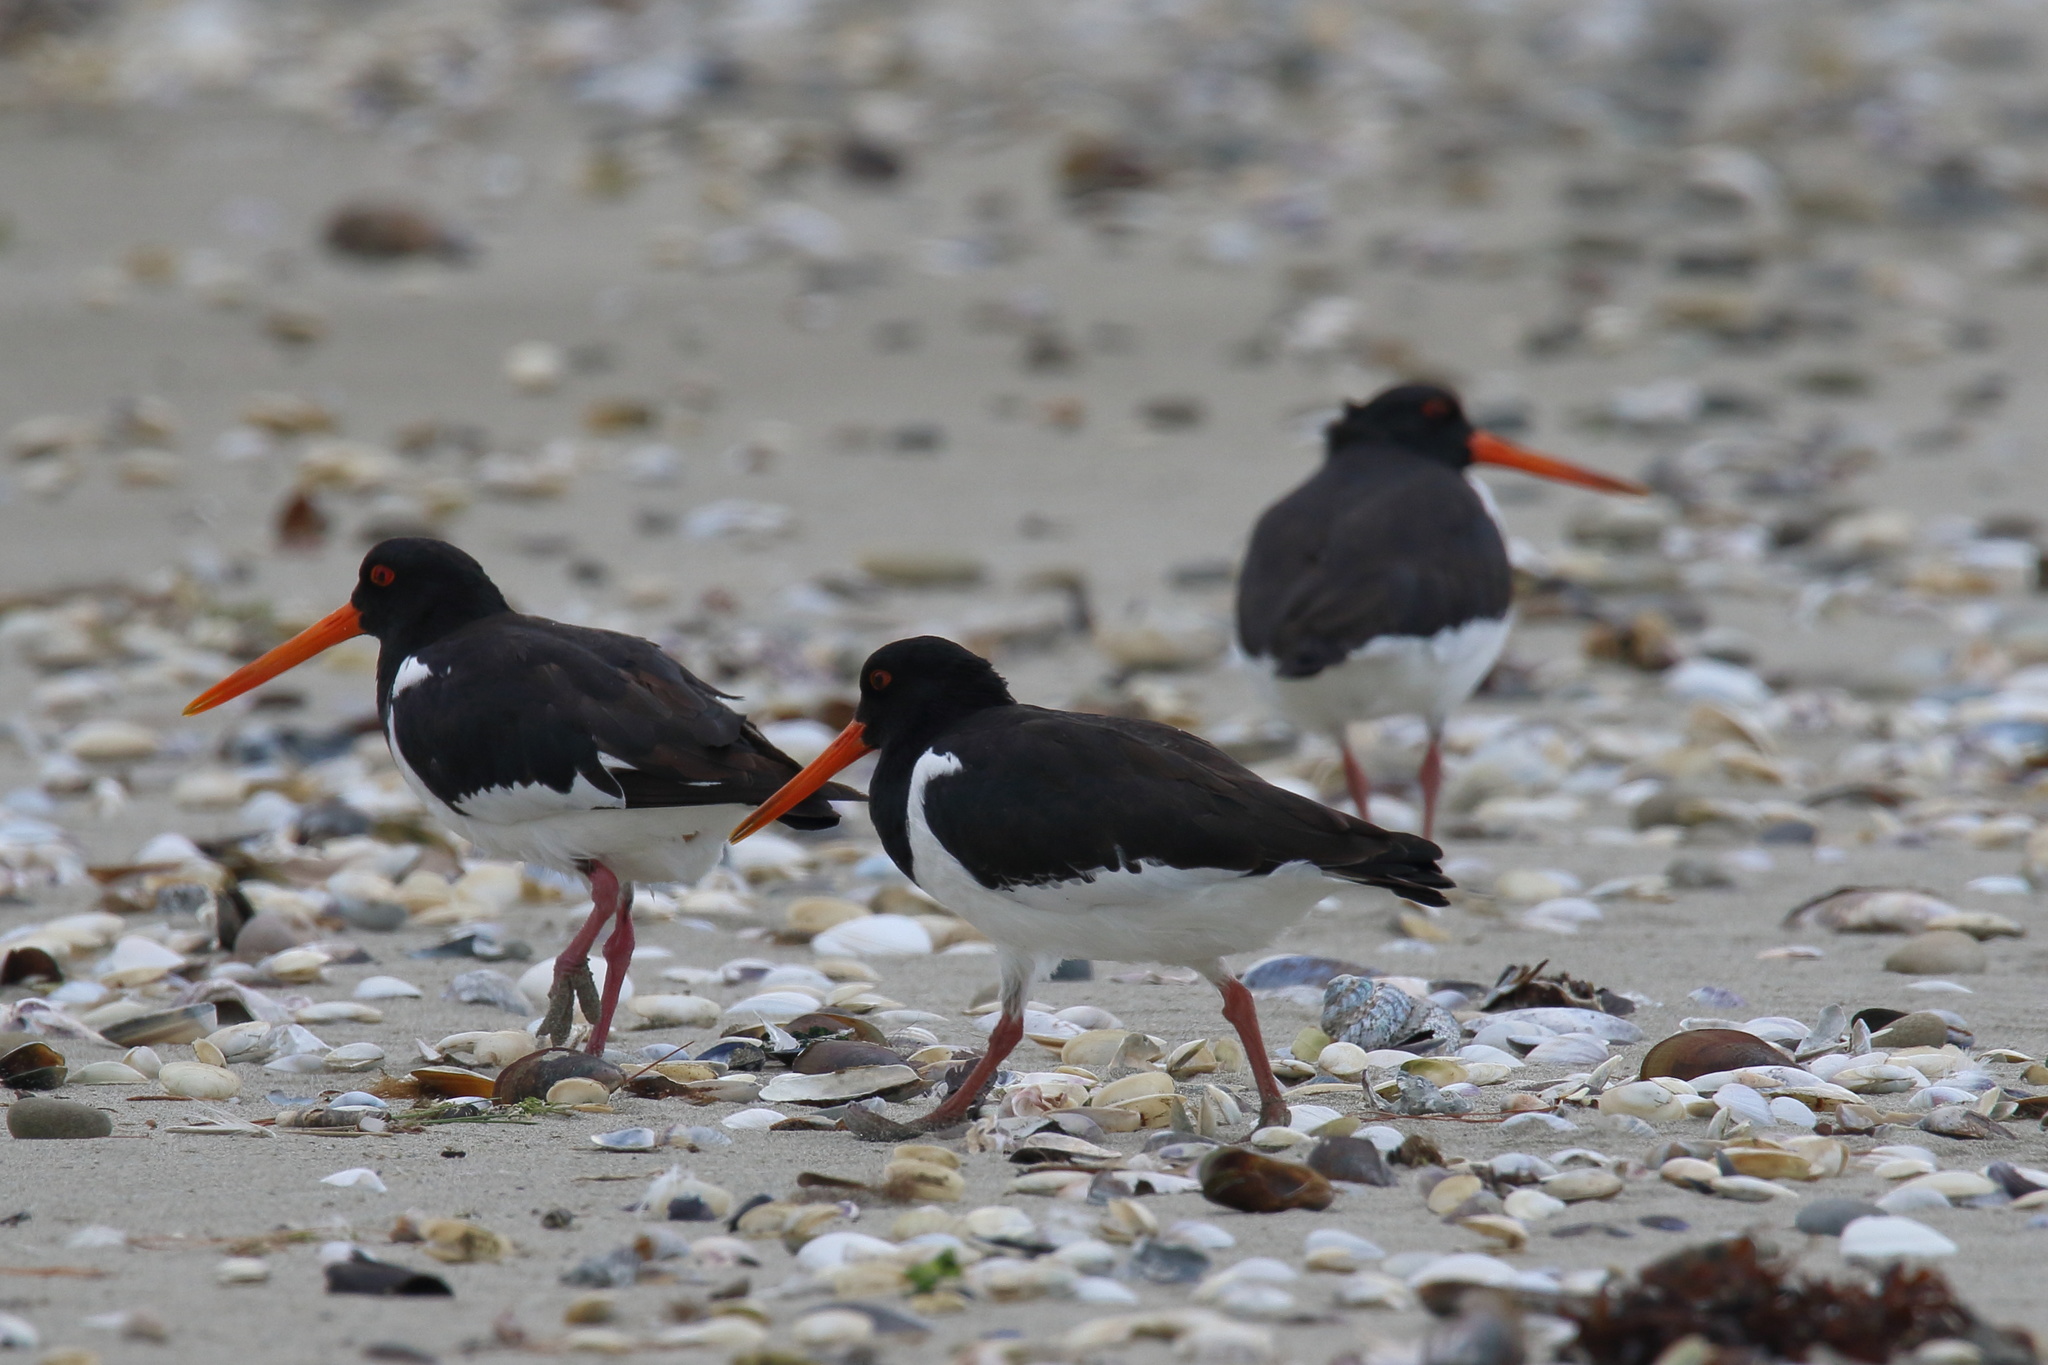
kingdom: Animalia
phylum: Chordata
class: Aves
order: Charadriiformes
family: Haematopodidae
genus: Haematopus
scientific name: Haematopus finschi
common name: South island oystercatcher
